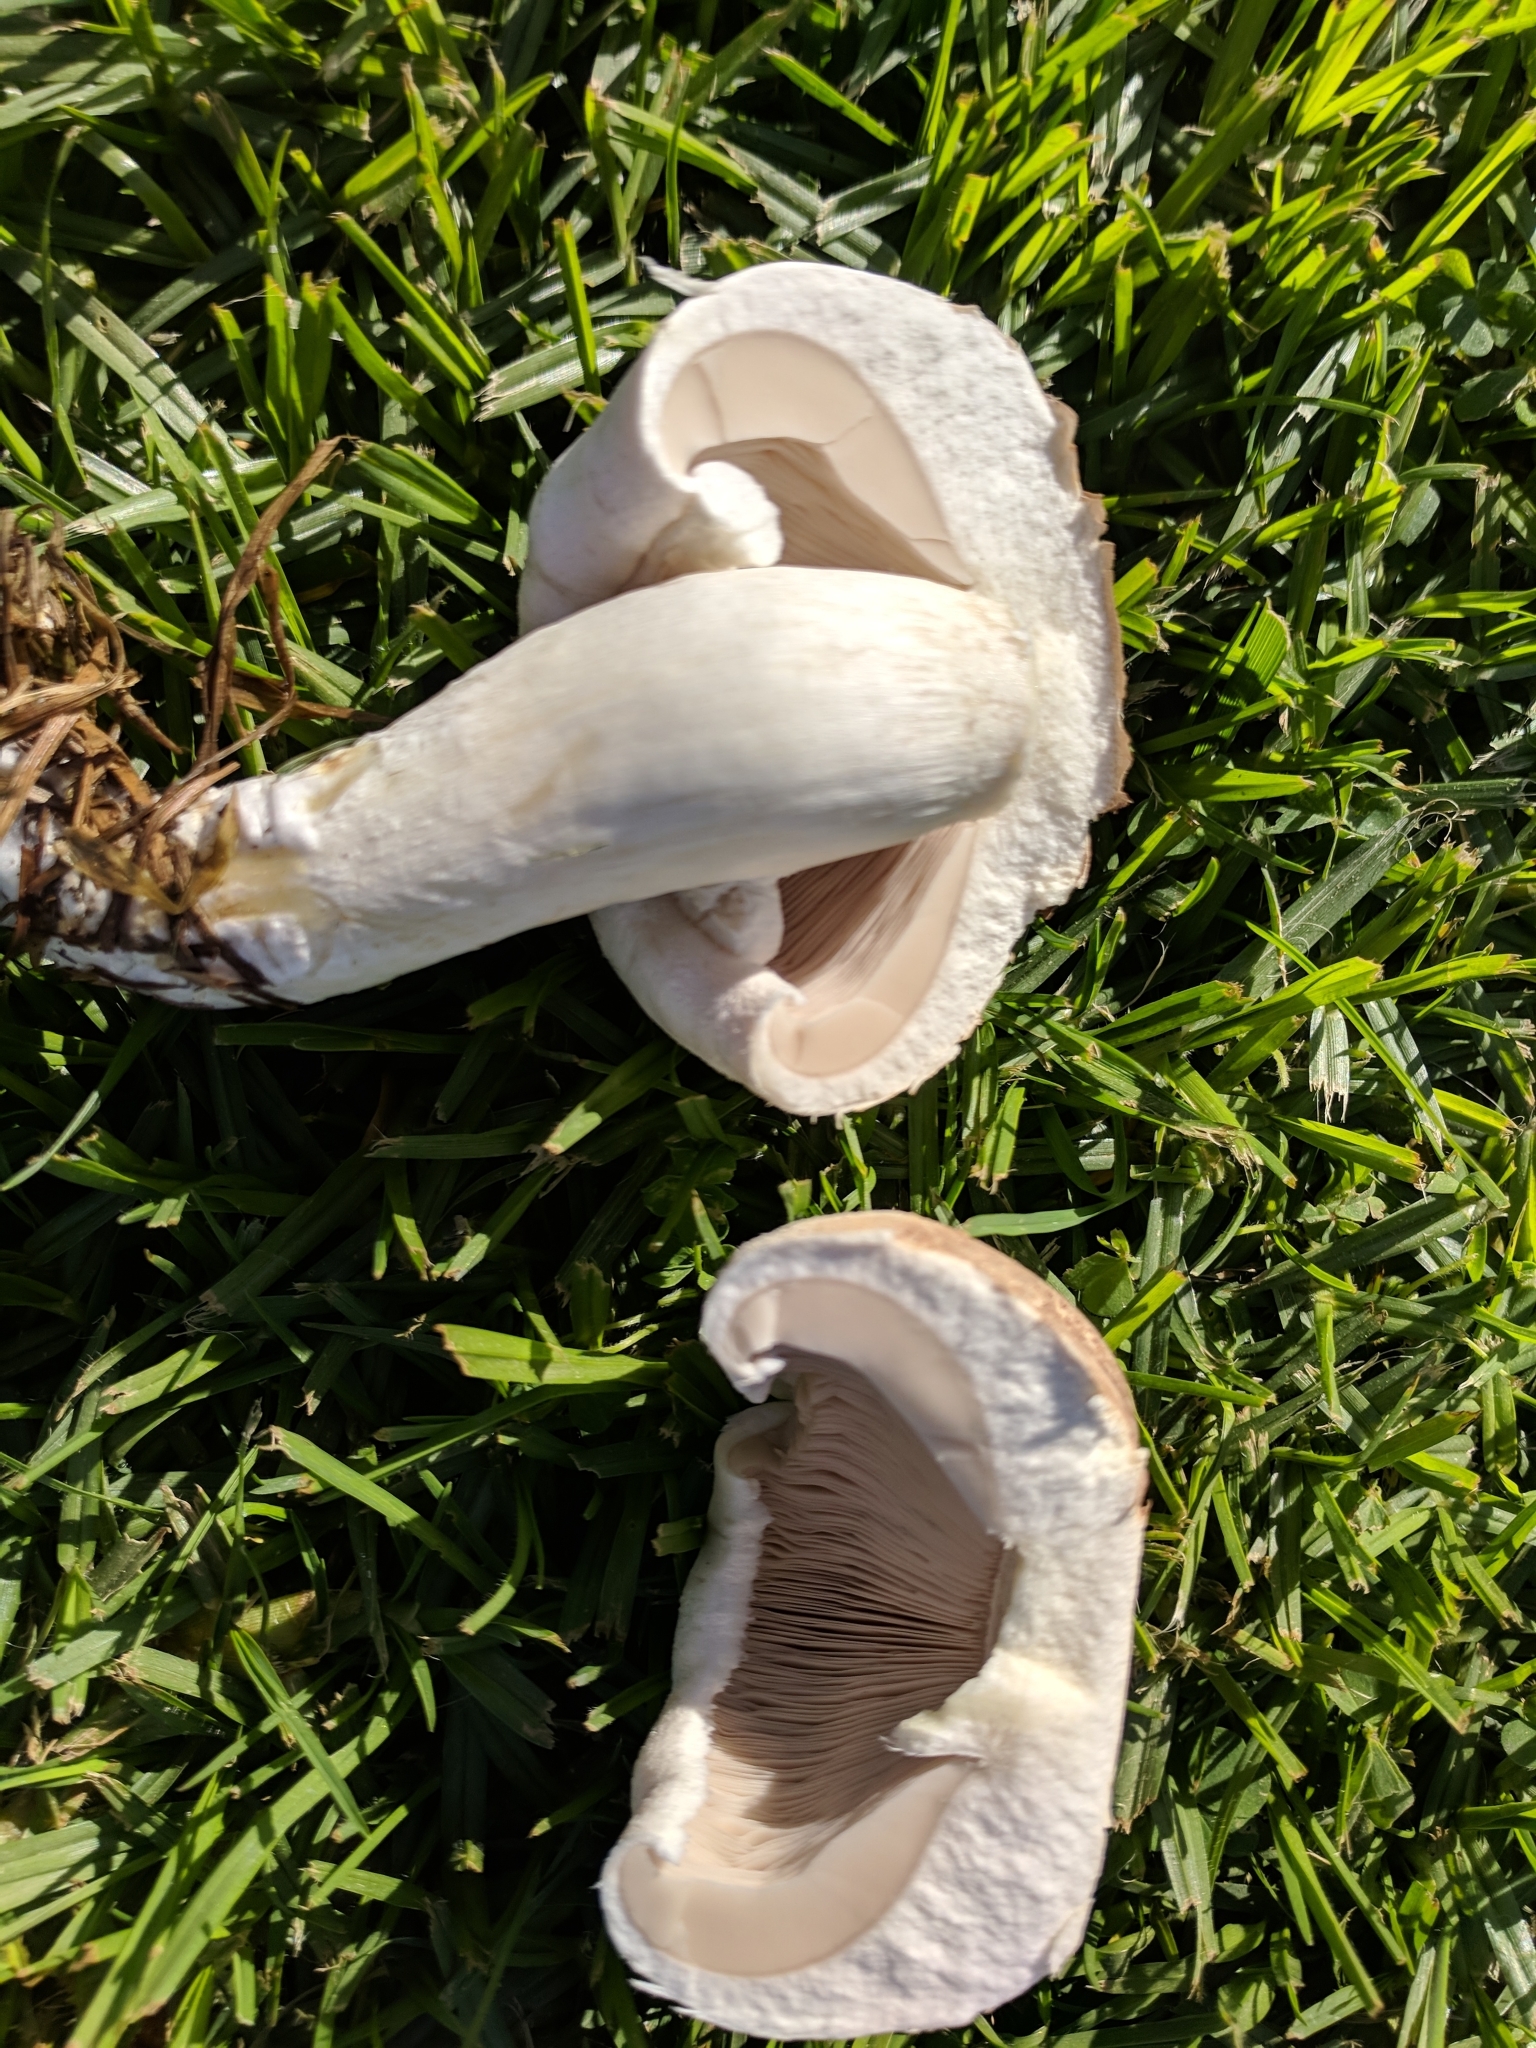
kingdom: Fungi
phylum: Basidiomycota
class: Agaricomycetes
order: Agaricales
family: Agaricaceae
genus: Agaricus
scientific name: Agaricus xanthodermus
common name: Yellow stainer
